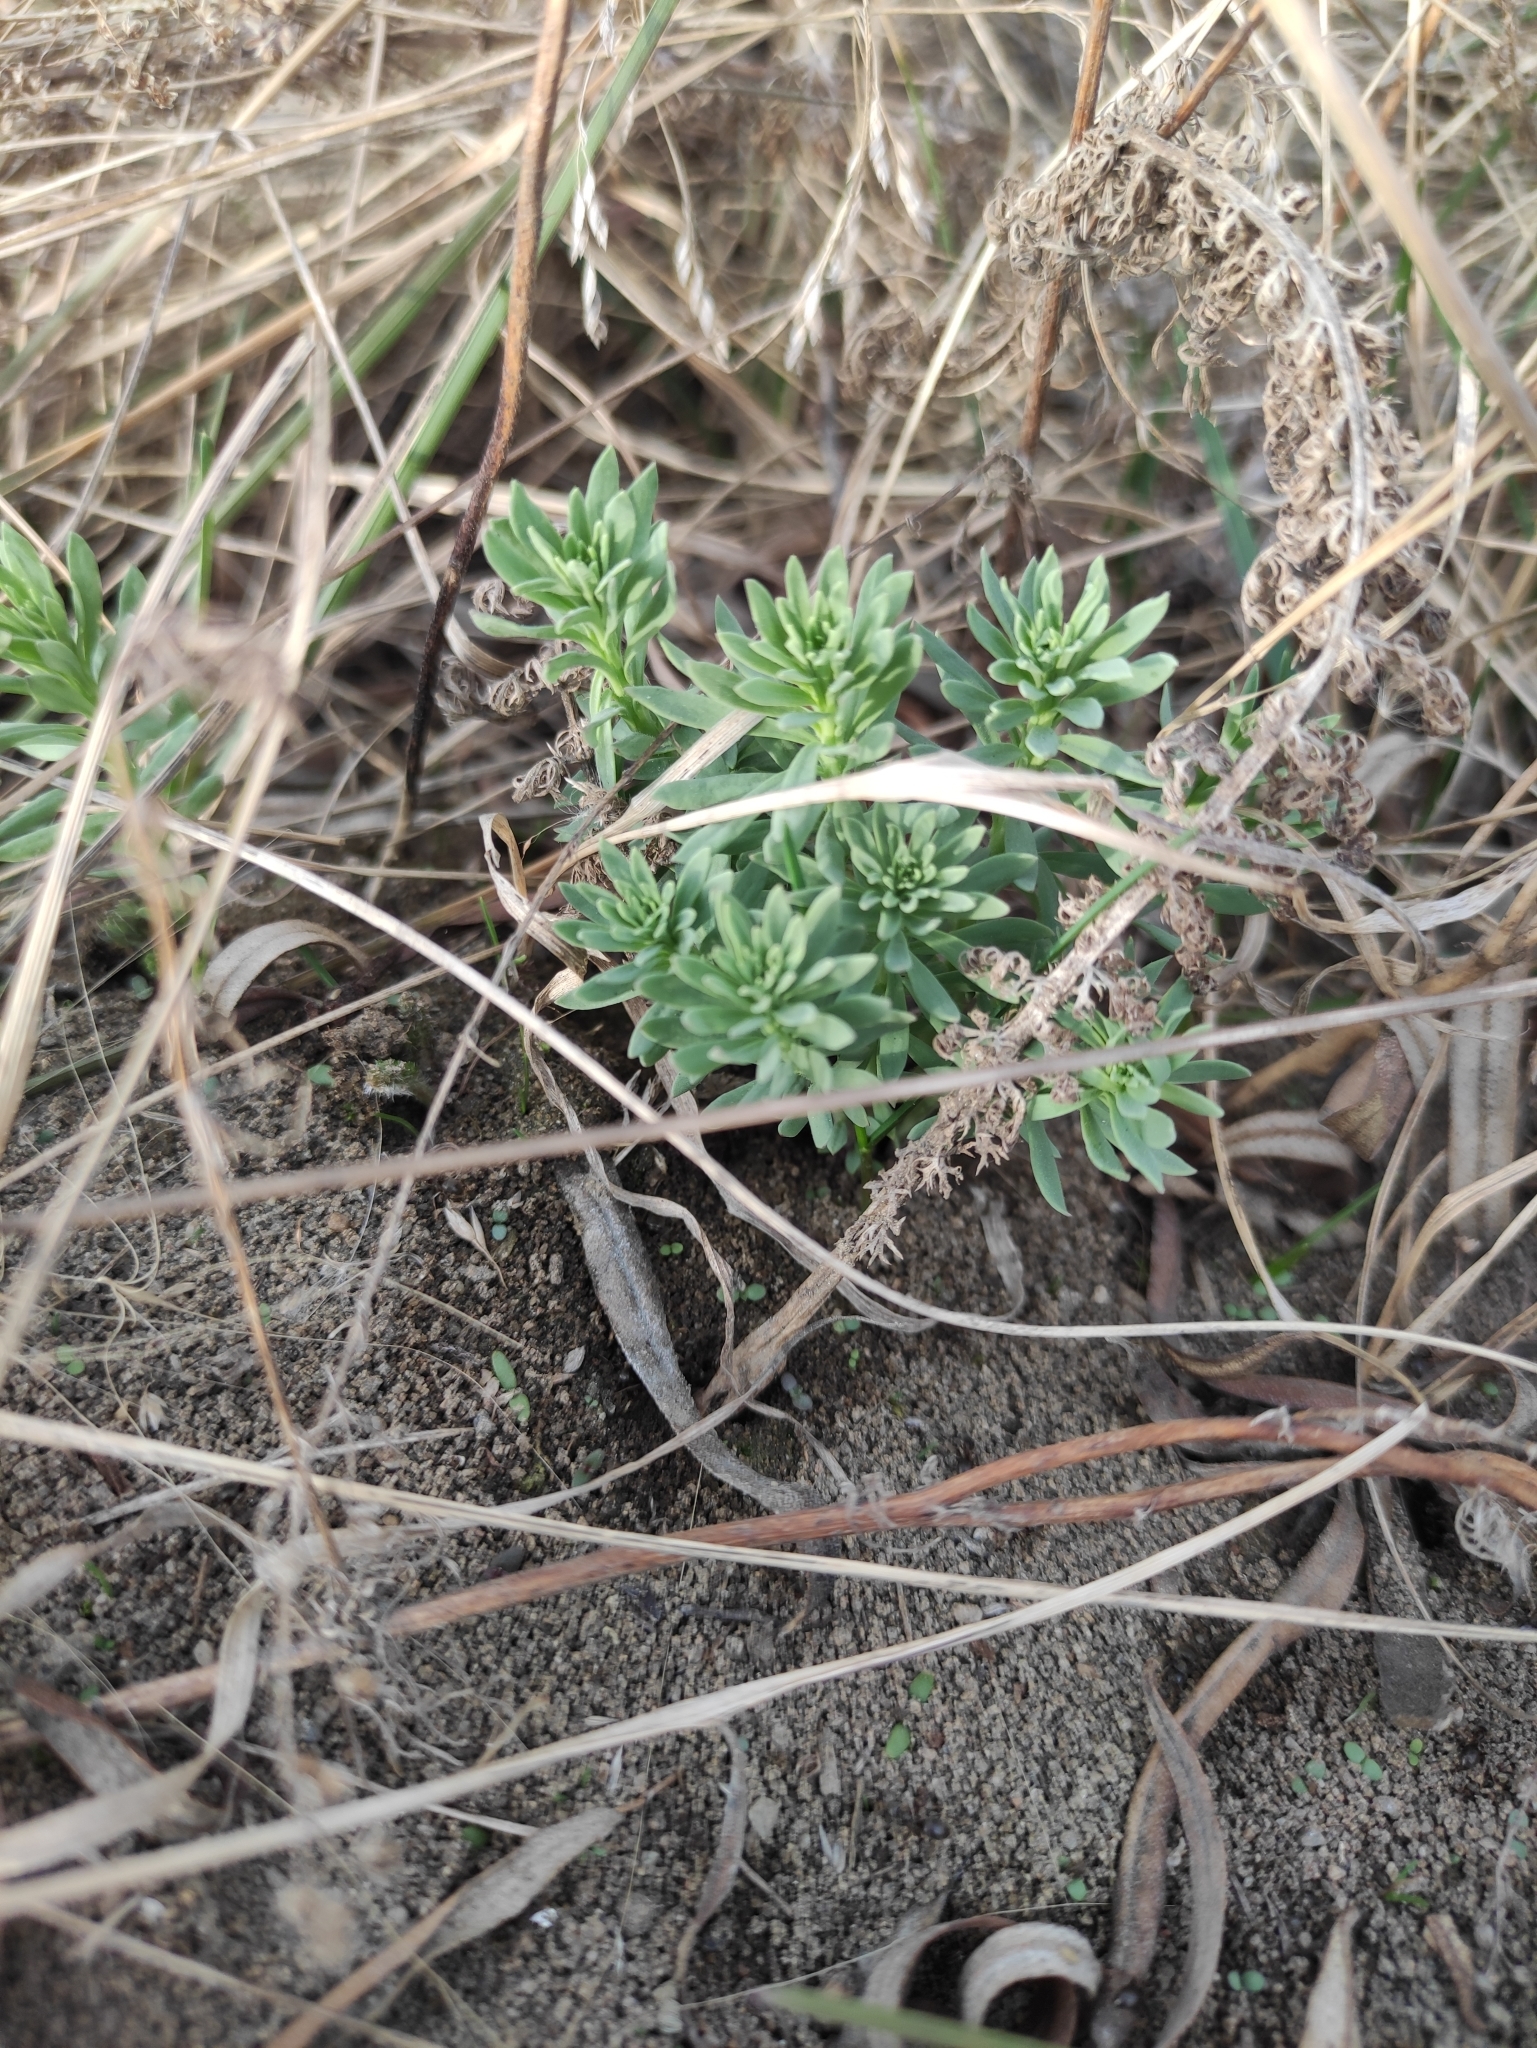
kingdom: Plantae
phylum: Tracheophyta
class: Magnoliopsida
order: Lamiales
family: Plantaginaceae
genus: Linaria
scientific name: Linaria vulgaris
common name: Butter and eggs
